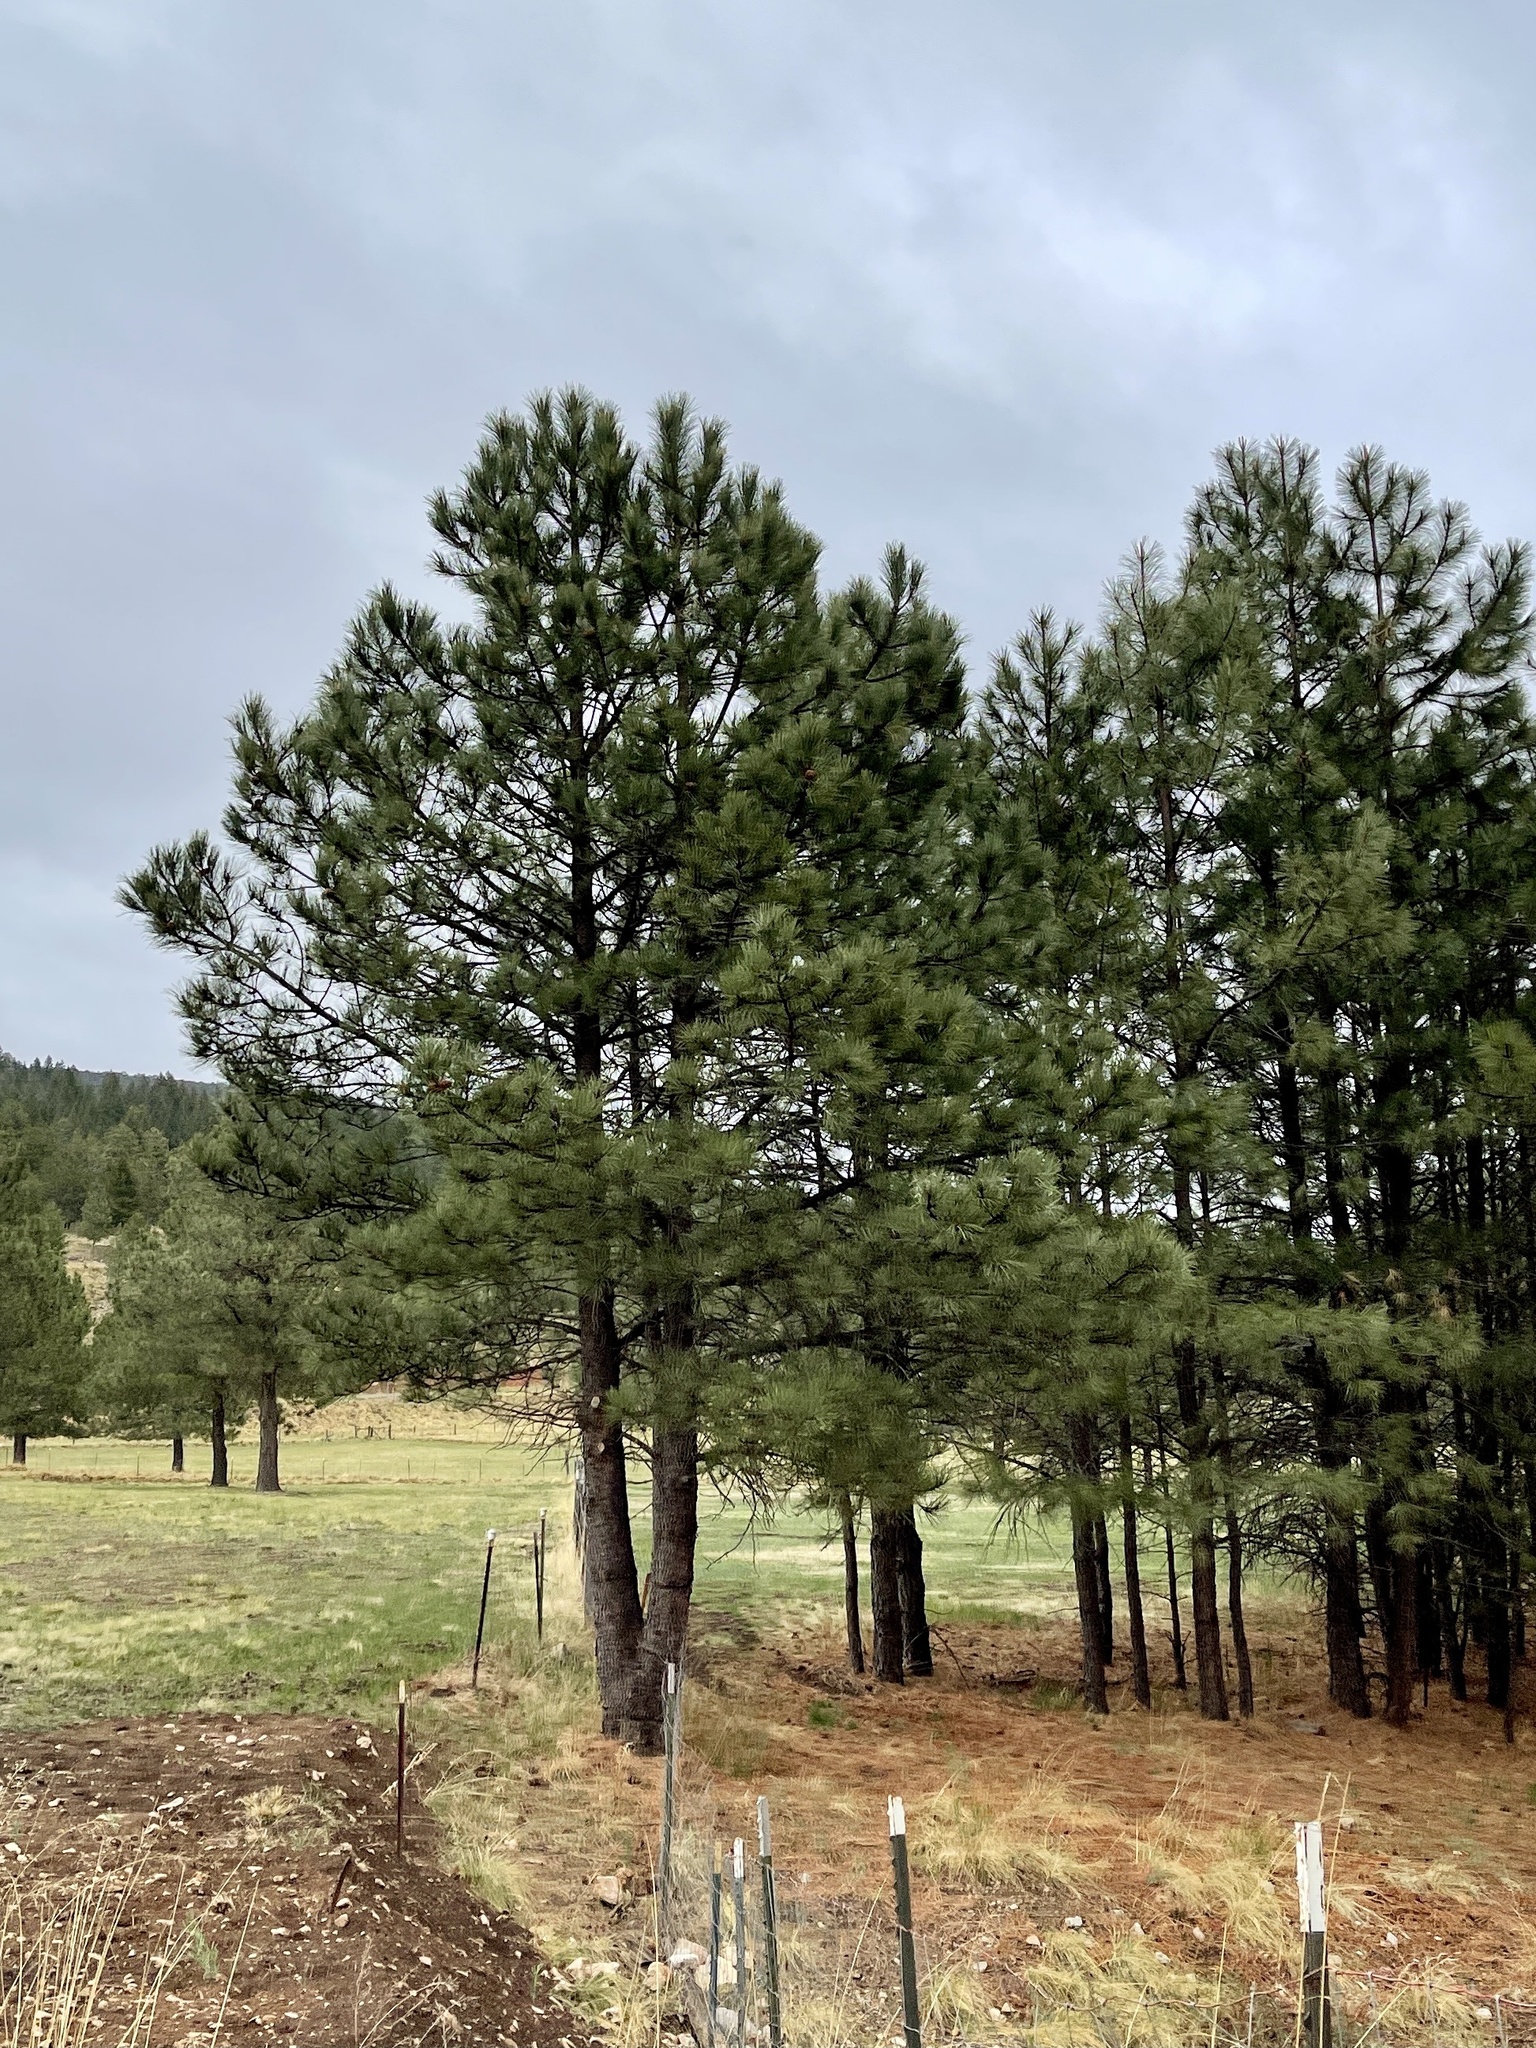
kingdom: Plantae
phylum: Tracheophyta
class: Pinopsida
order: Pinales
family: Pinaceae
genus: Pinus
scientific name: Pinus ponderosa
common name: Western yellow-pine
